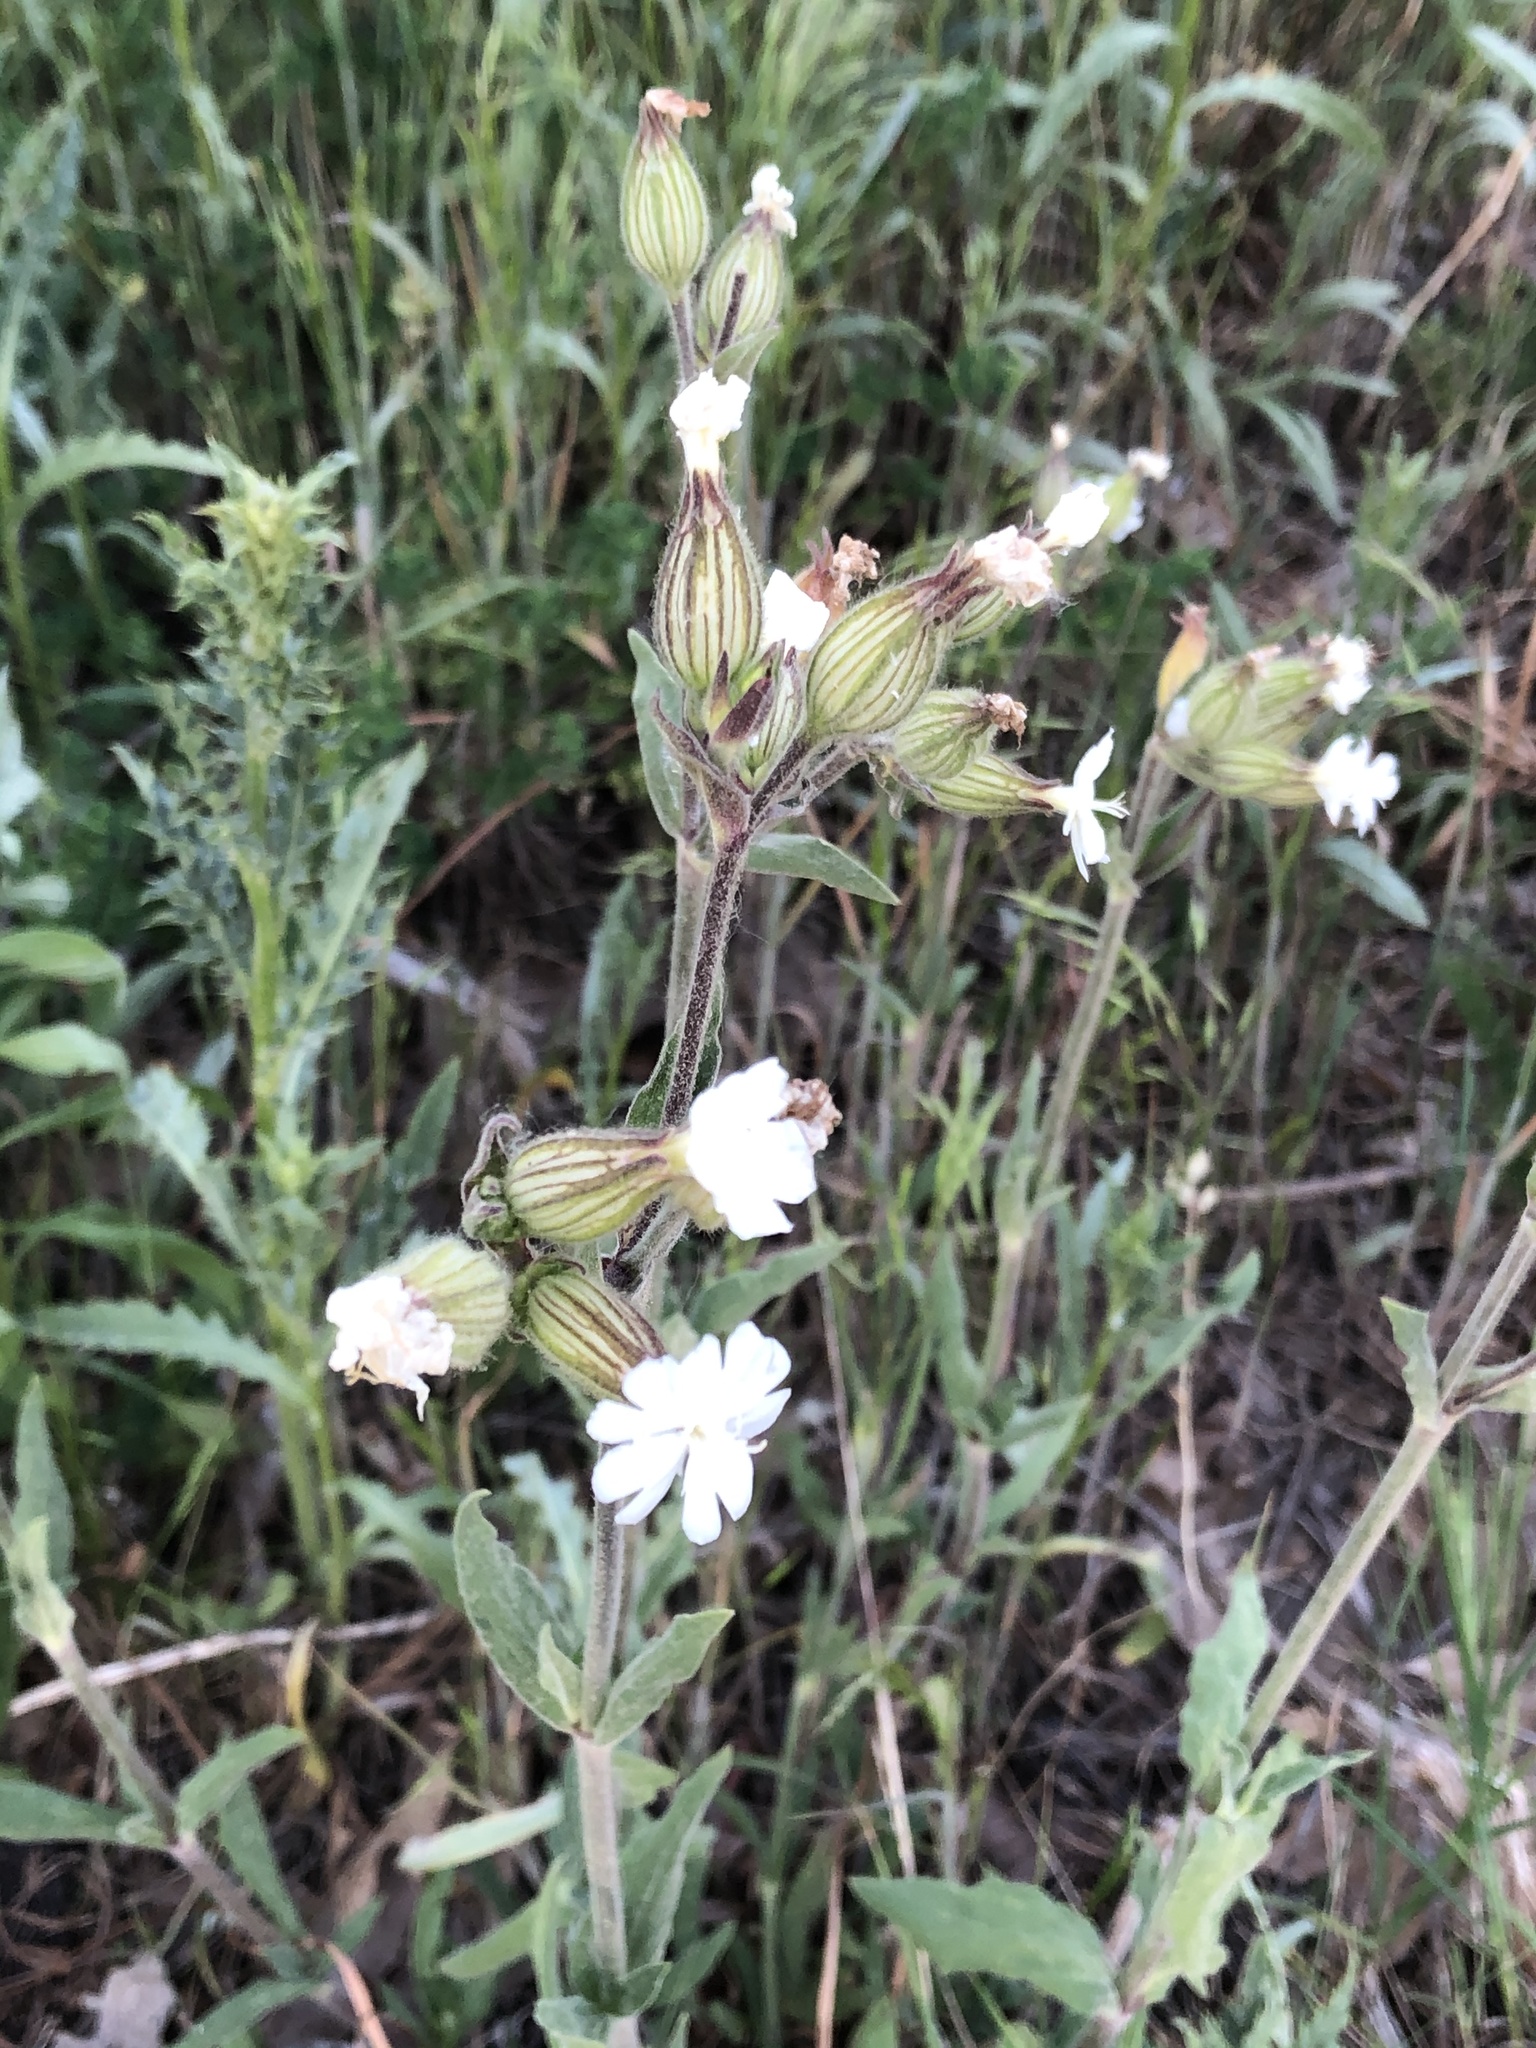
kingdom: Plantae
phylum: Tracheophyta
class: Magnoliopsida
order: Caryophyllales
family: Caryophyllaceae
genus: Silene
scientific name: Silene latifolia
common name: White campion
